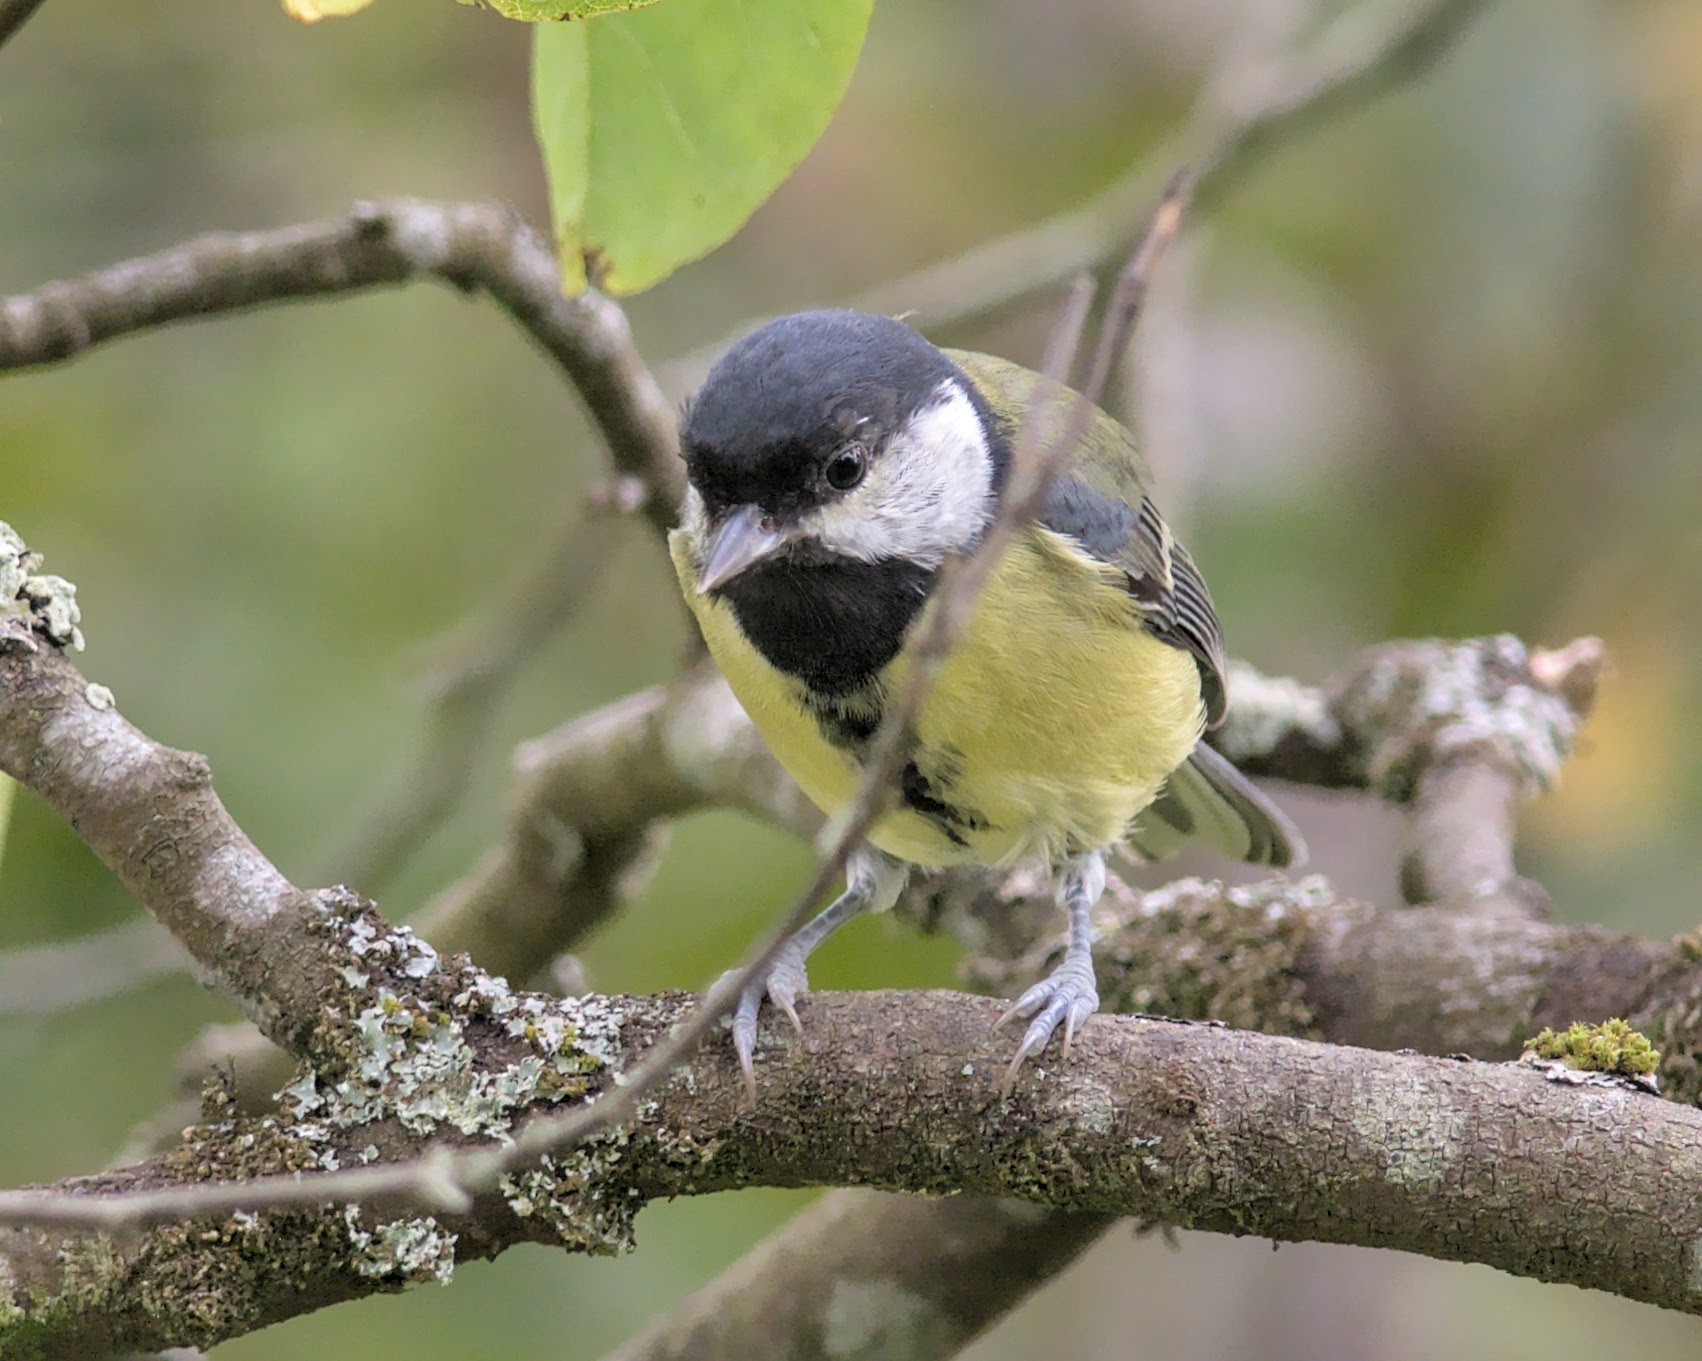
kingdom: Animalia
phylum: Chordata
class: Aves
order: Passeriformes
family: Paridae
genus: Parus
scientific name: Parus major
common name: Great tit
